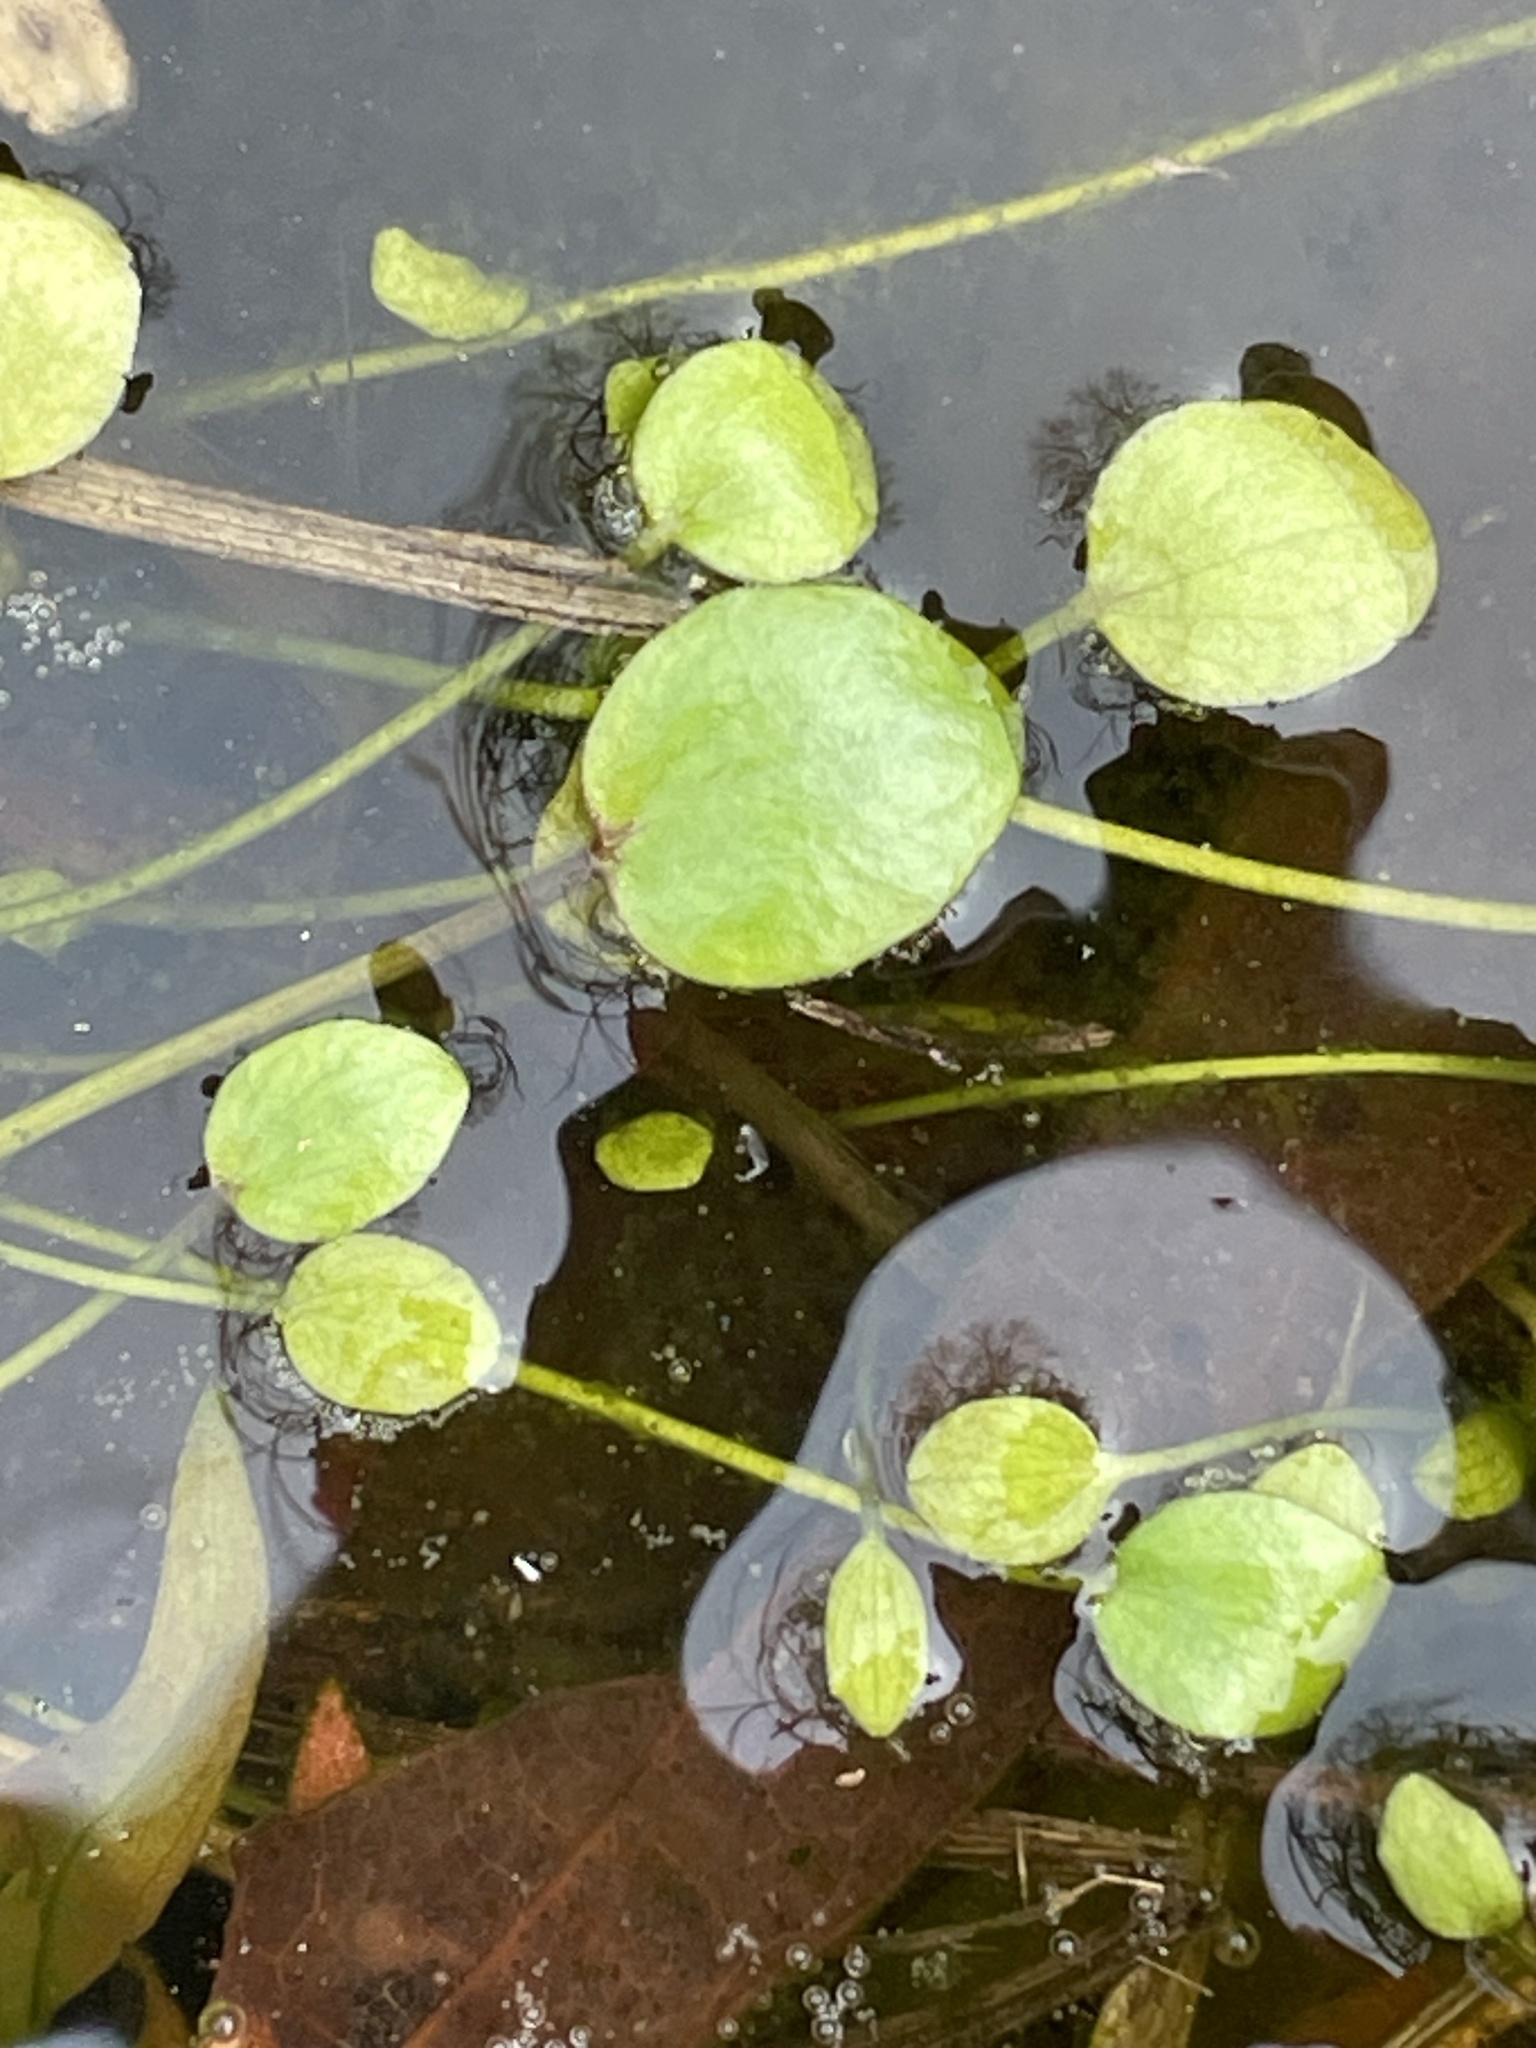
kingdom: Plantae
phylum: Tracheophyta
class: Magnoliopsida
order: Ranunculales
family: Ranunculaceae
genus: Ranunculus
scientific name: Ranunculus pusillus
